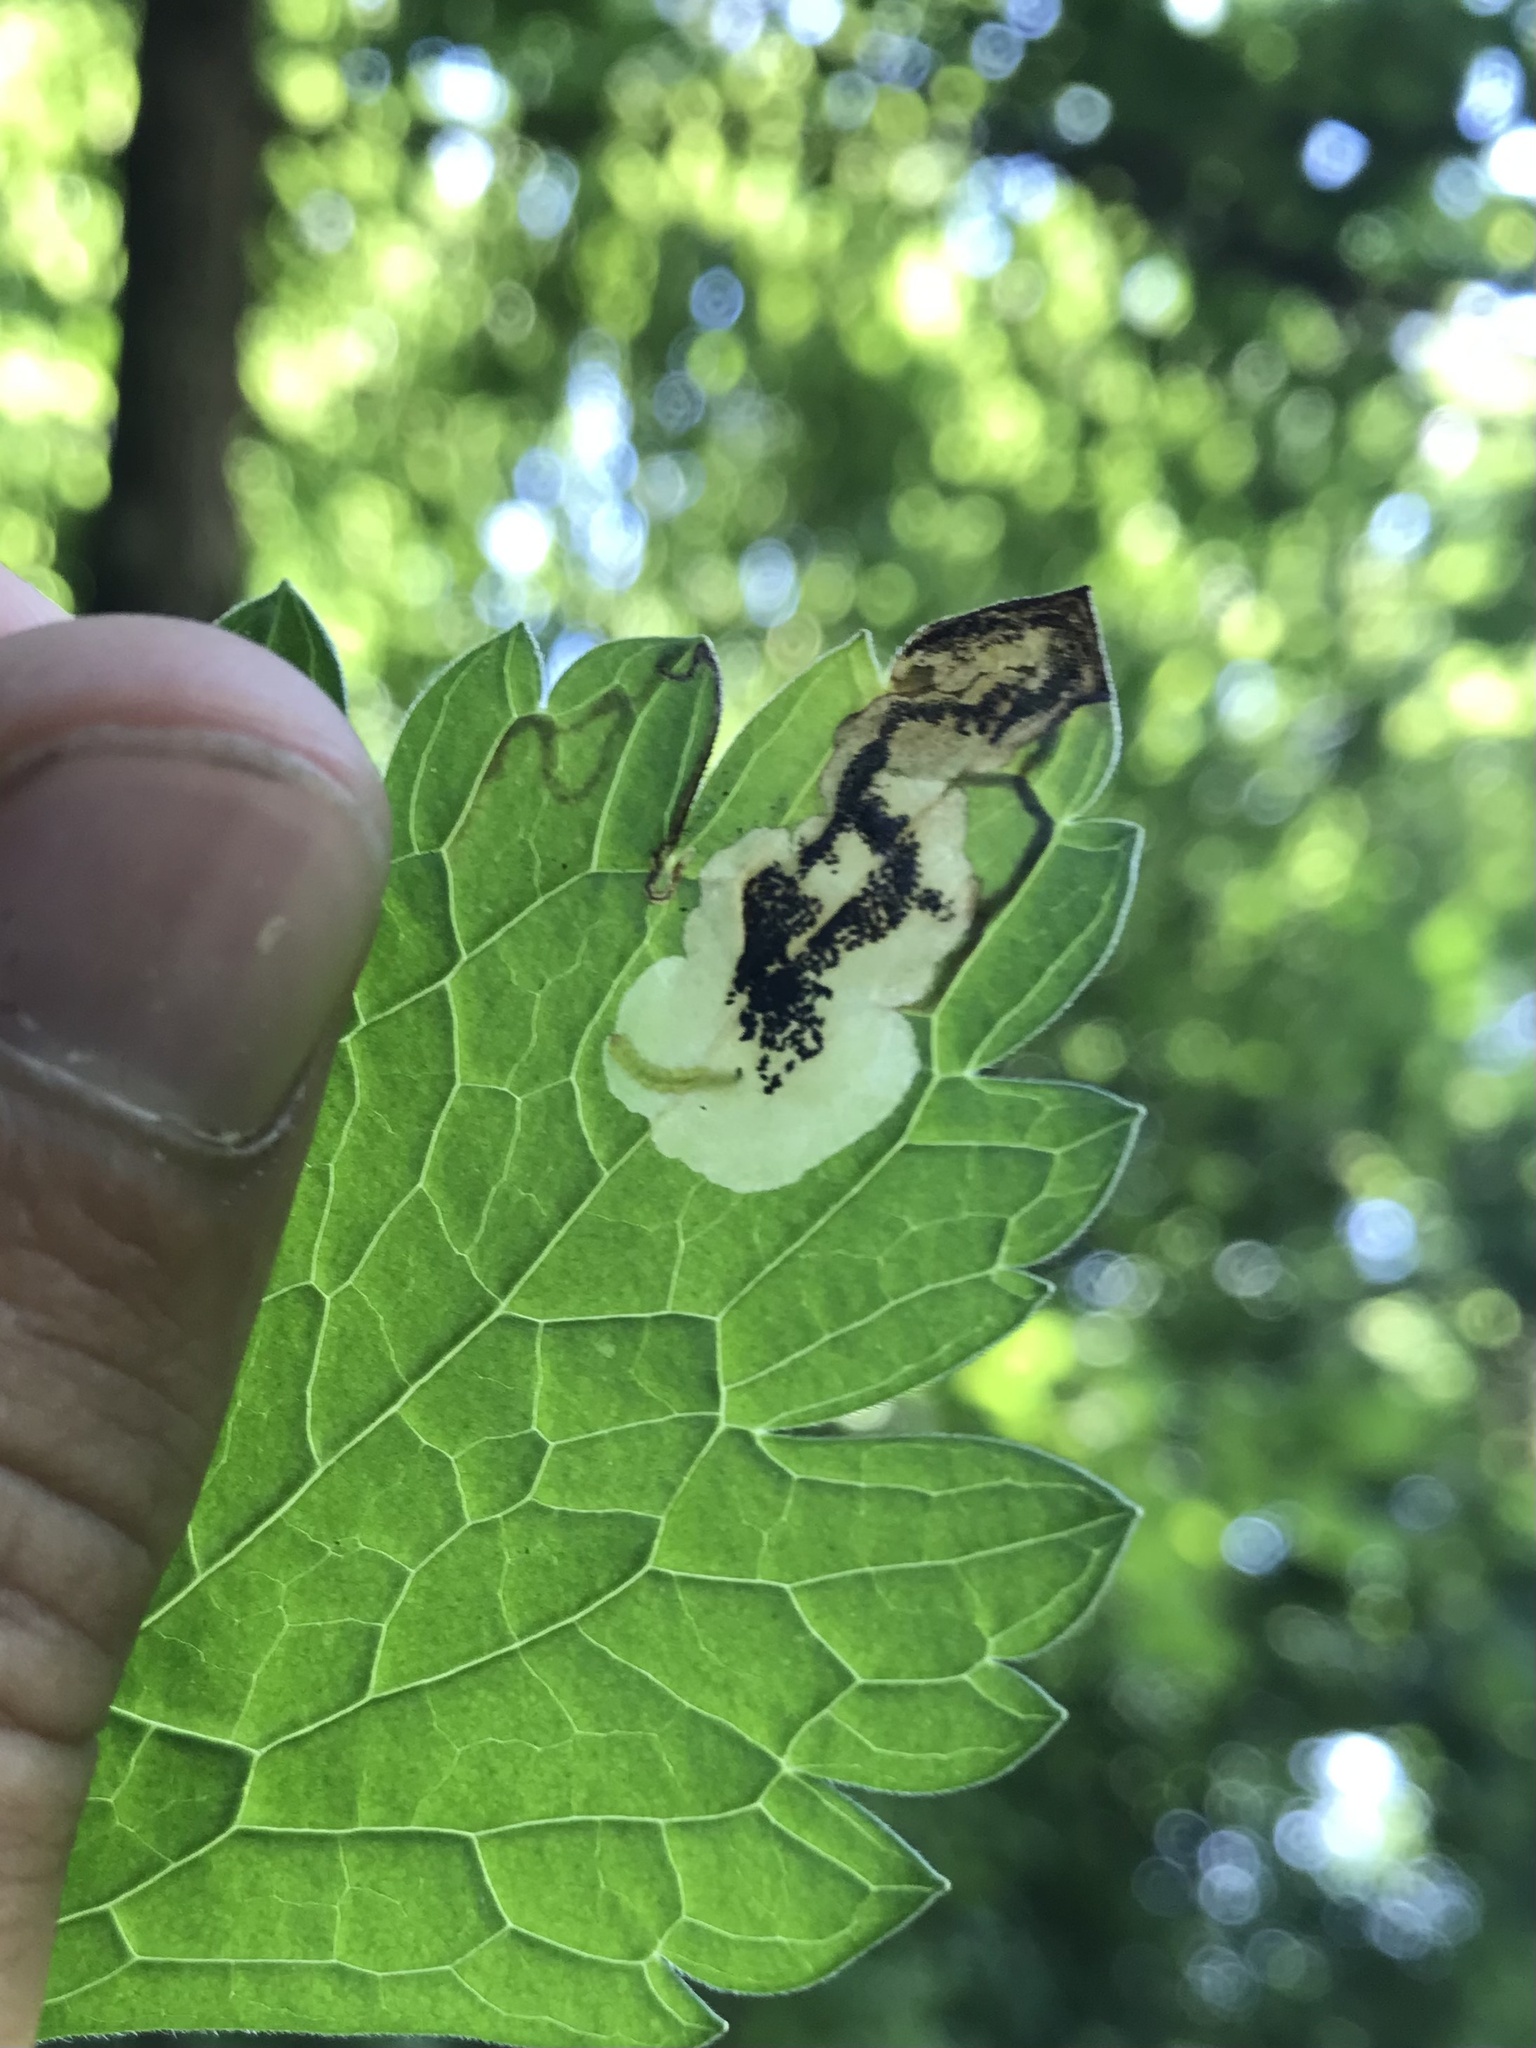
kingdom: Animalia
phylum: Arthropoda
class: Insecta
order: Lepidoptera
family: Gracillariidae
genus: Parectopa
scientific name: Parectopa geraniella
